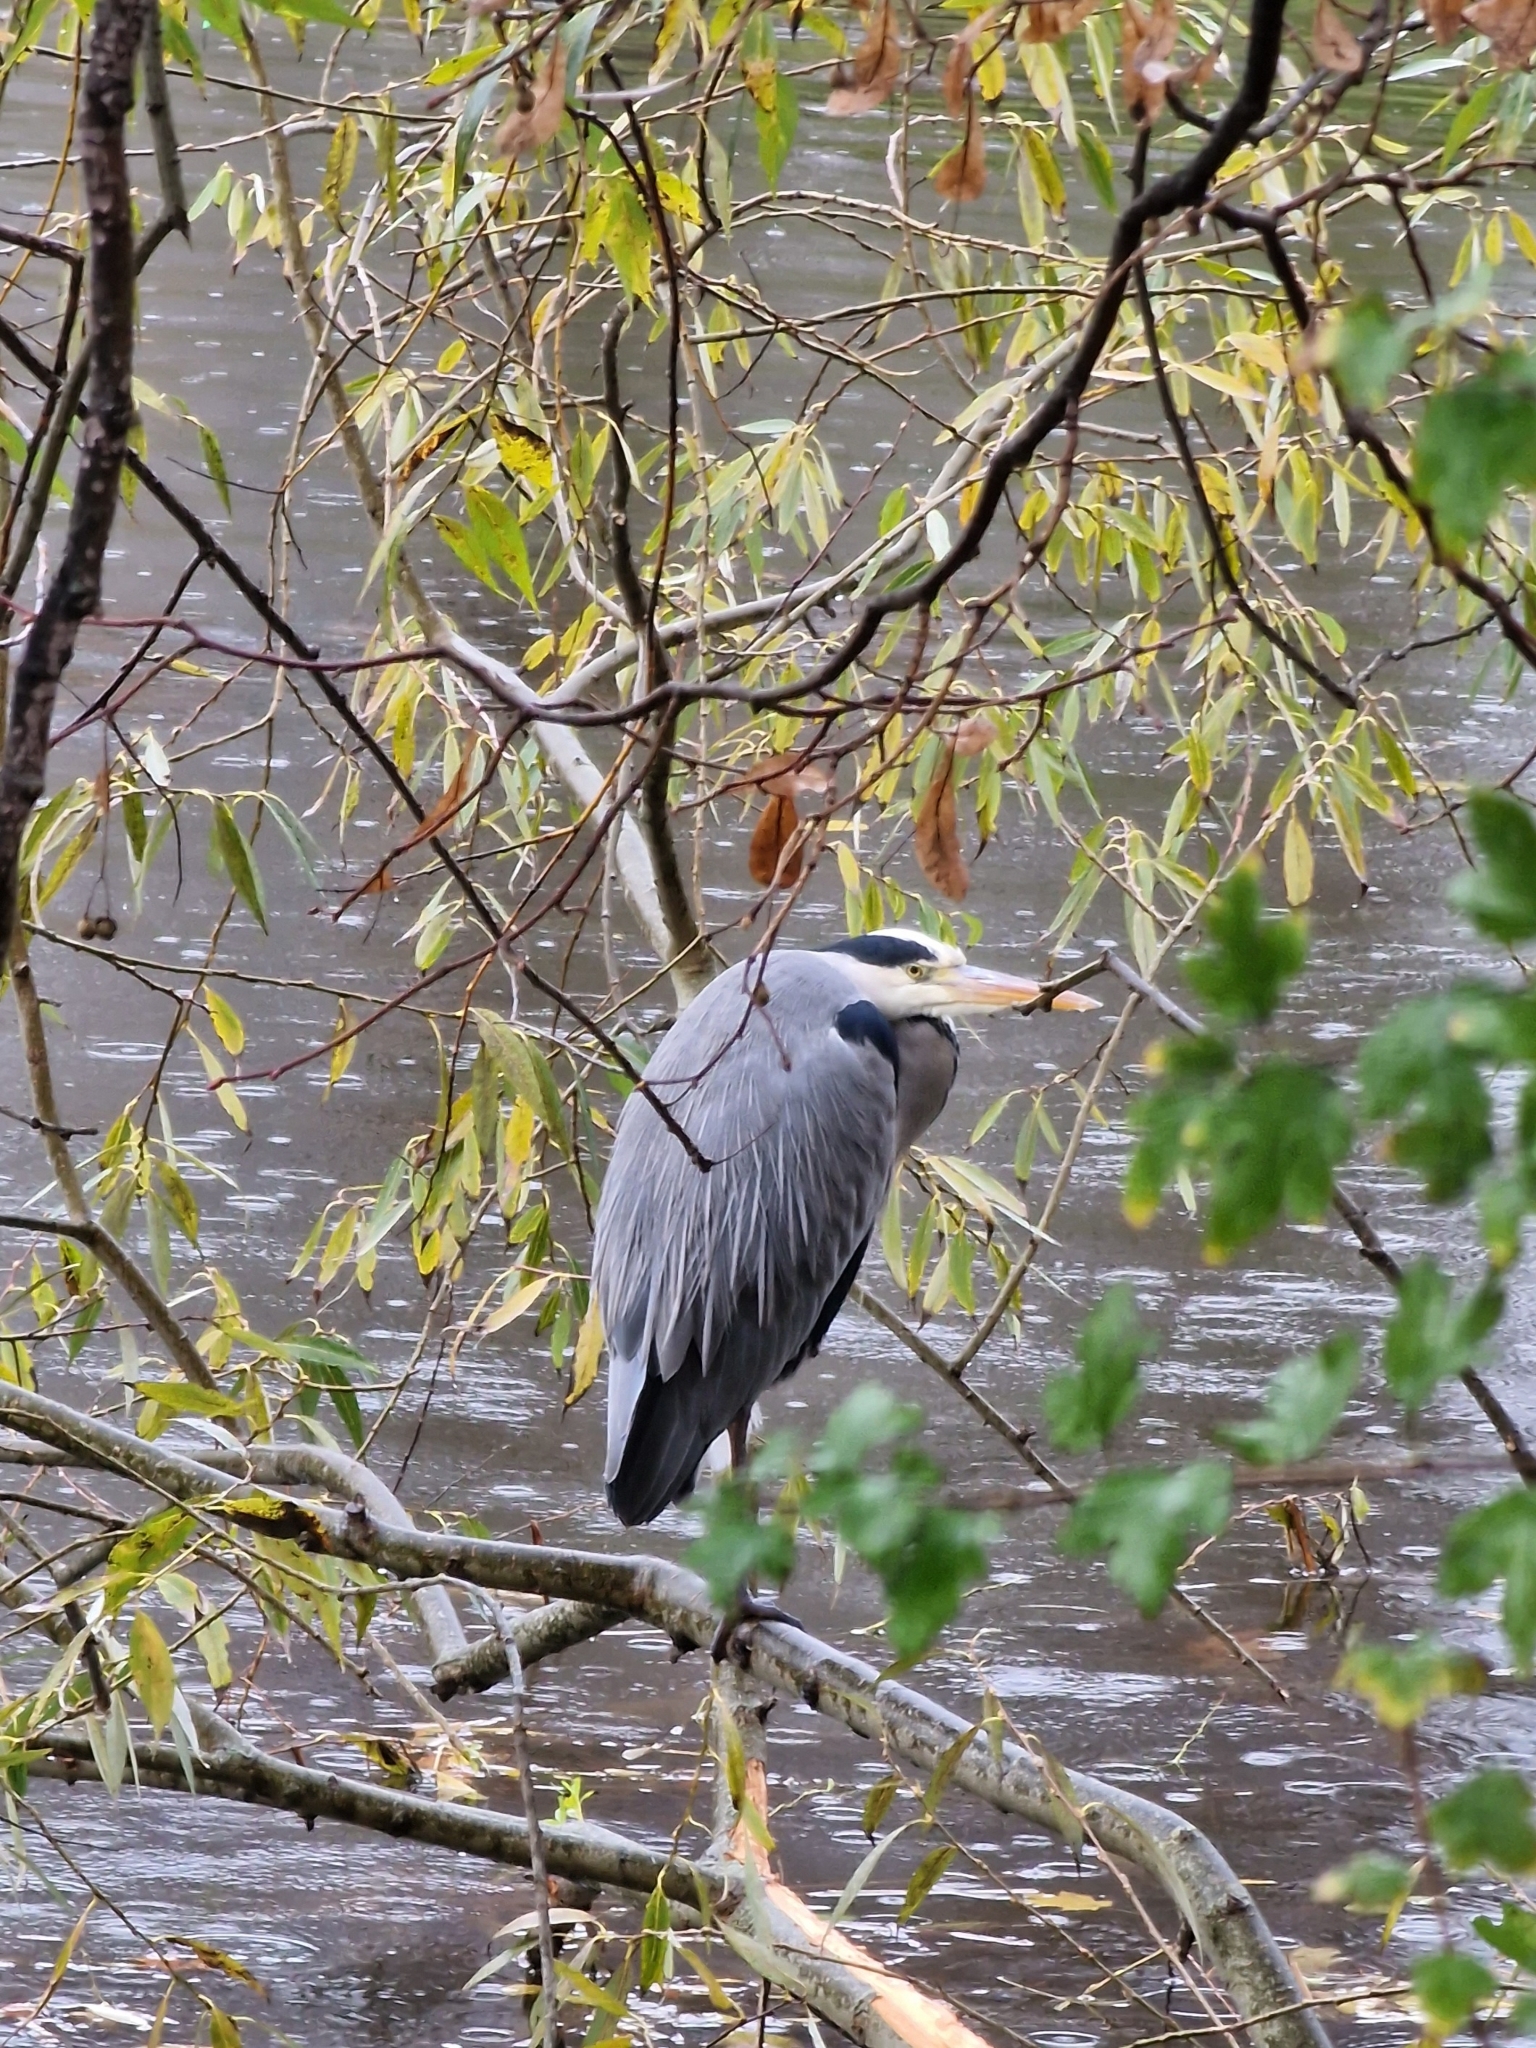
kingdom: Animalia
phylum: Chordata
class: Aves
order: Pelecaniformes
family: Ardeidae
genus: Ardea
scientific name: Ardea cinerea
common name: Grey heron
